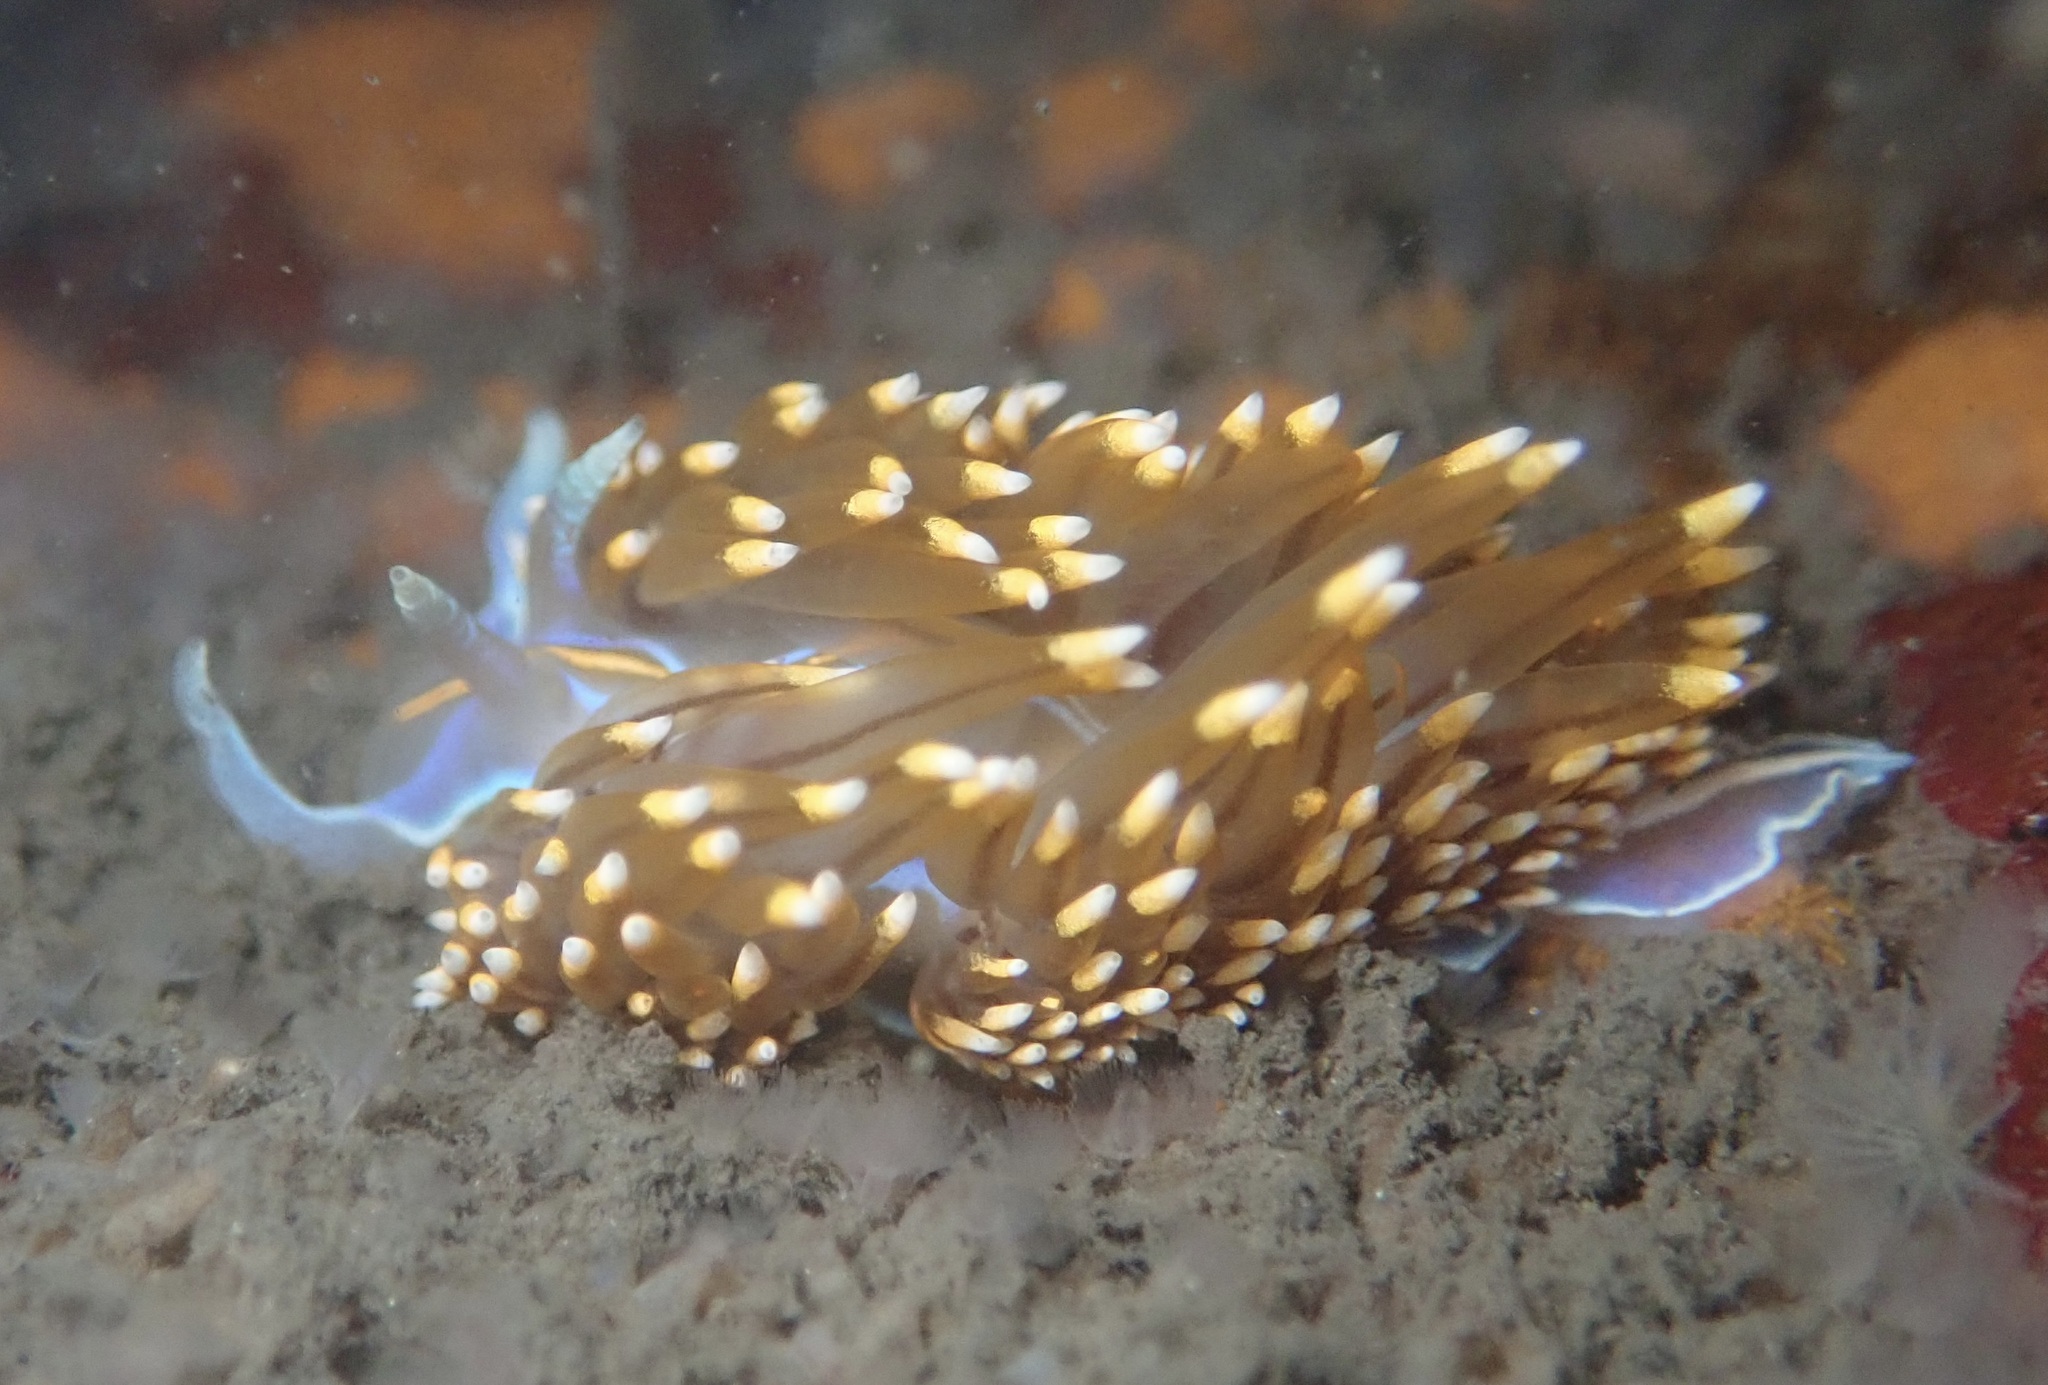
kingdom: Animalia
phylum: Mollusca
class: Gastropoda
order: Nudibranchia
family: Myrrhinidae
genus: Hermissenda
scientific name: Hermissenda opalescens
